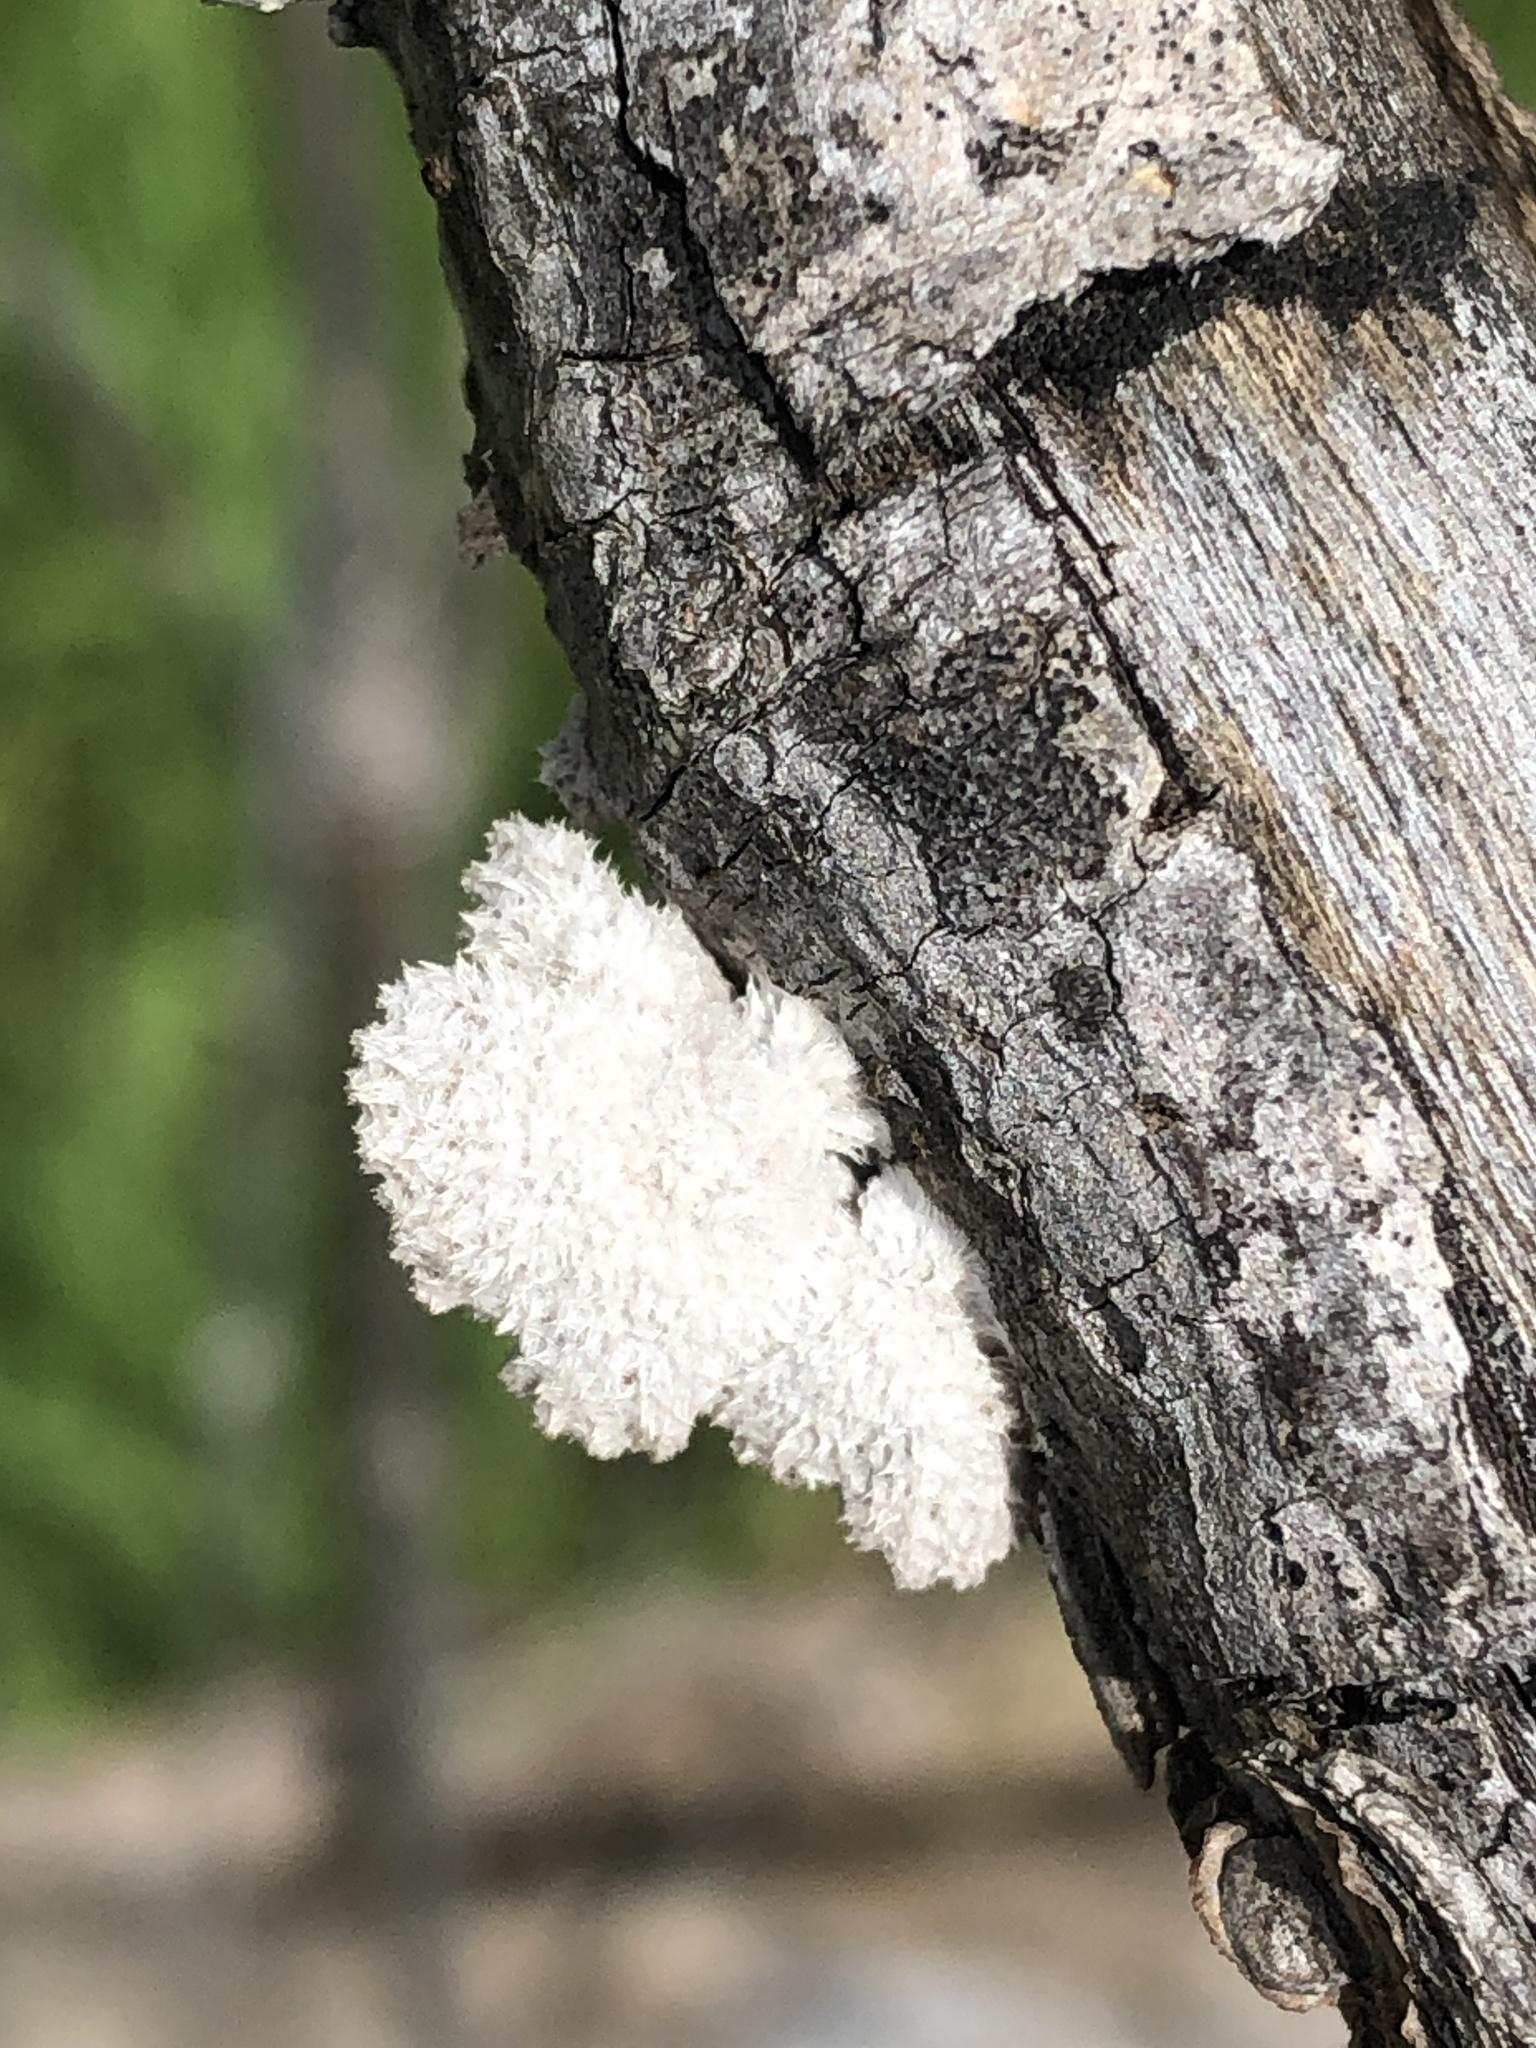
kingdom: Fungi
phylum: Basidiomycota
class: Agaricomycetes
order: Agaricales
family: Schizophyllaceae
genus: Schizophyllum
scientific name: Schizophyllum commune
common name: Common porecrust
